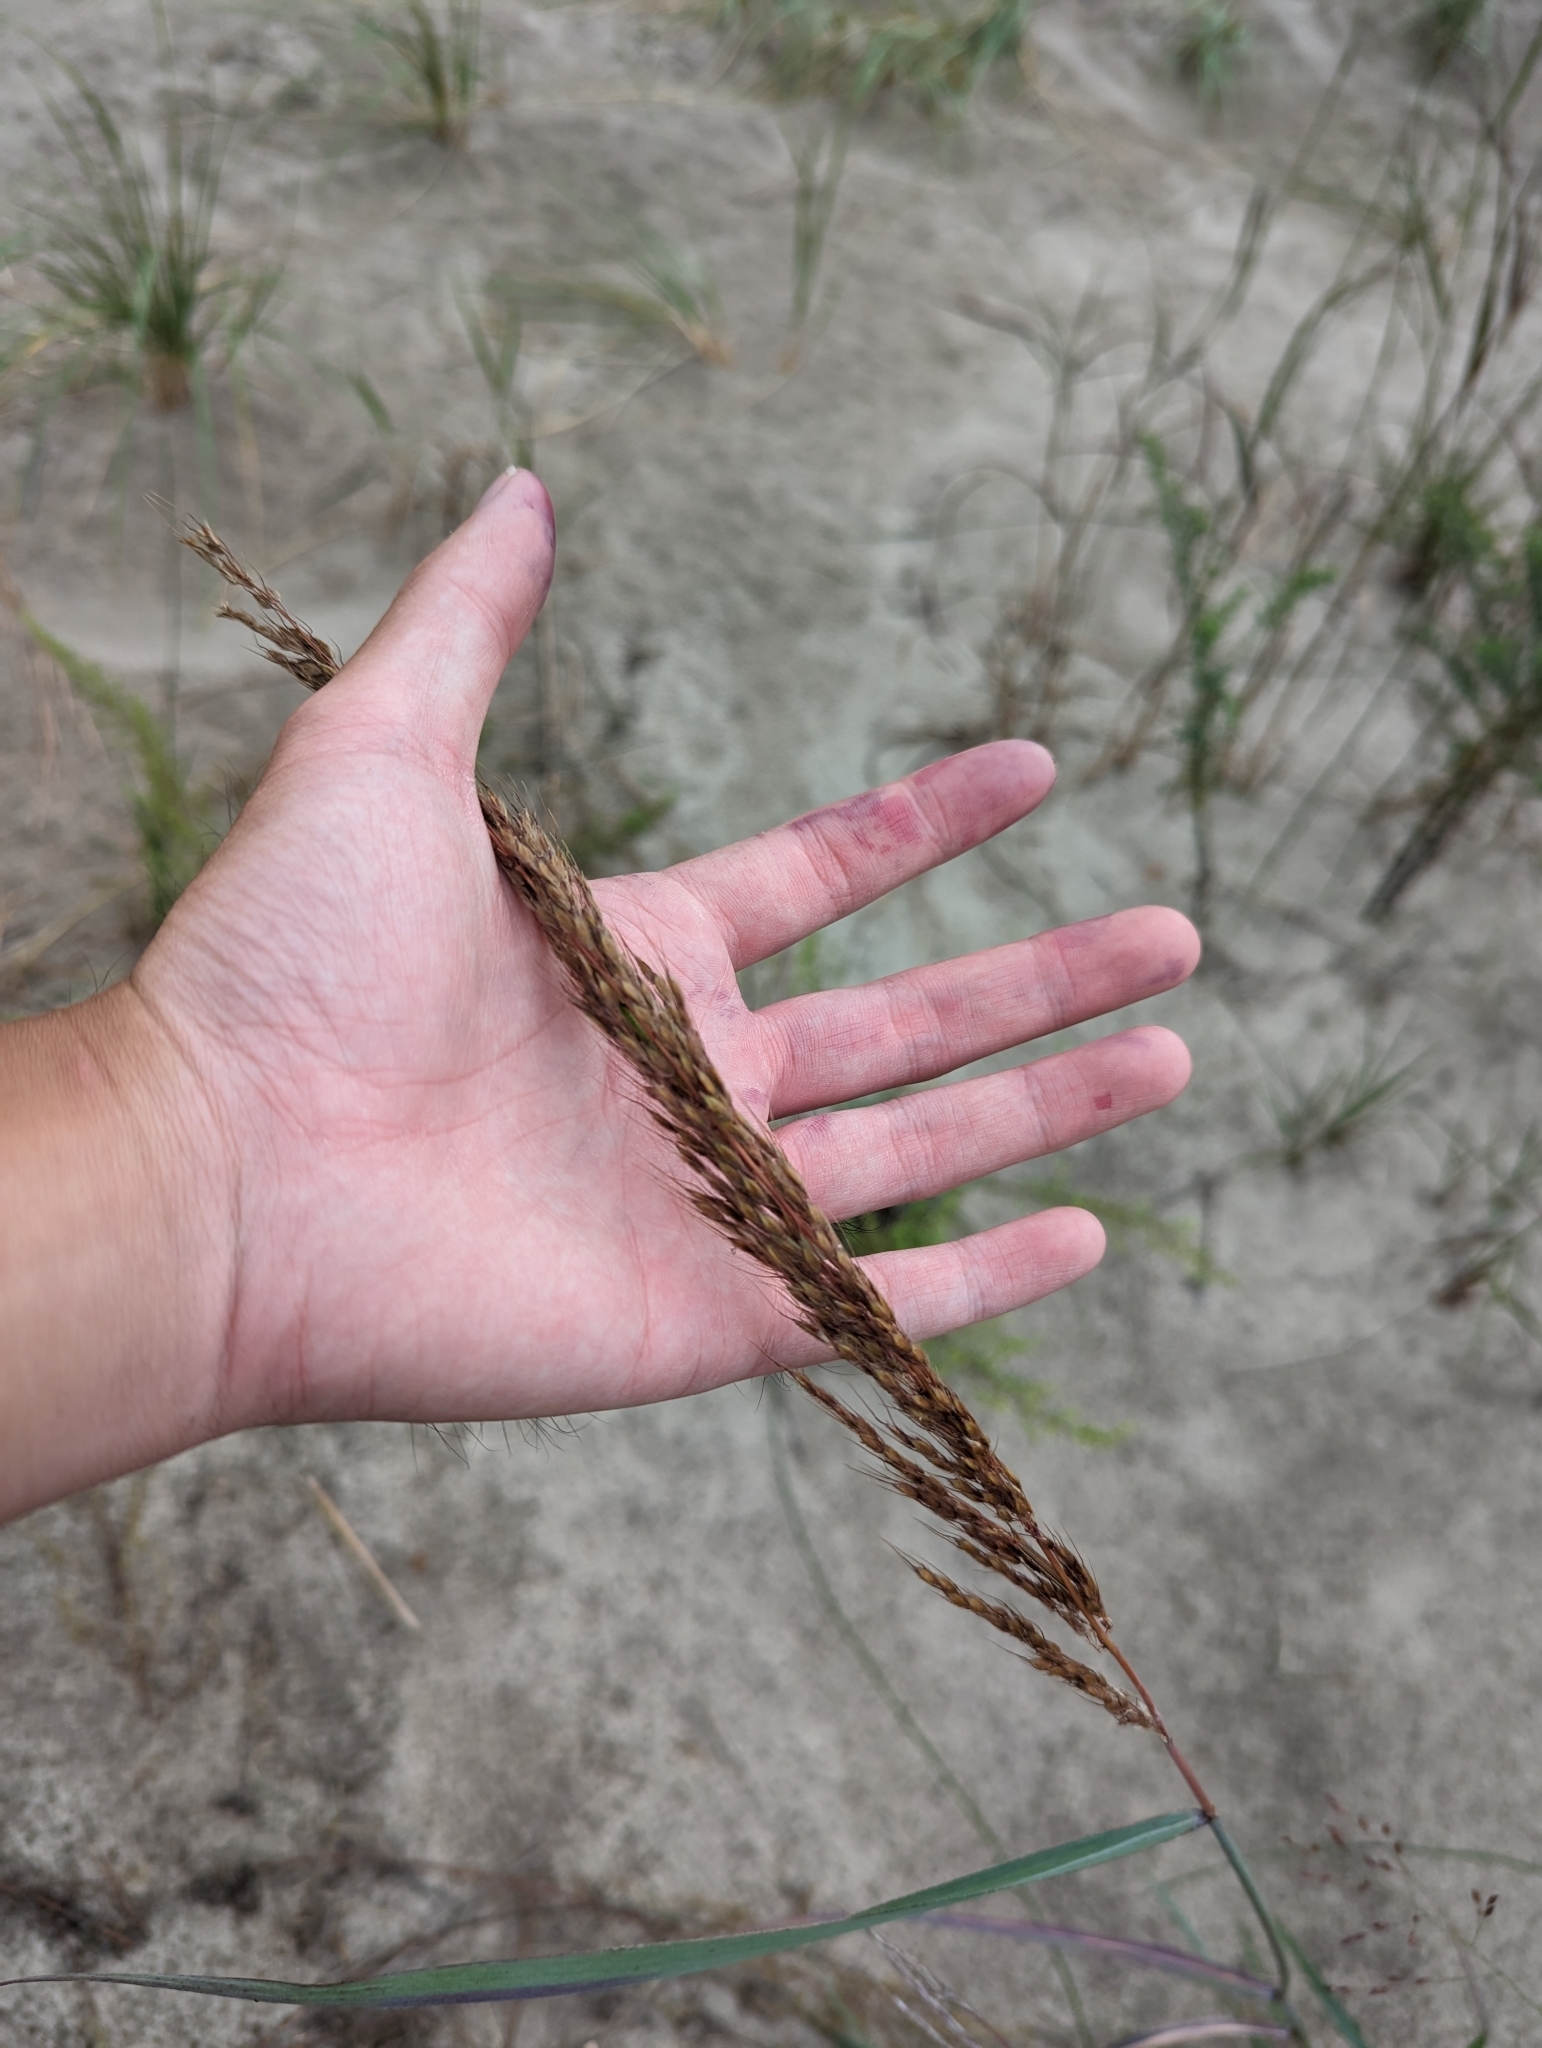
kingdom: Plantae
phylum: Tracheophyta
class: Liliopsida
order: Poales
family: Poaceae
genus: Sorghastrum
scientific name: Sorghastrum nutans
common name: Indian grass
